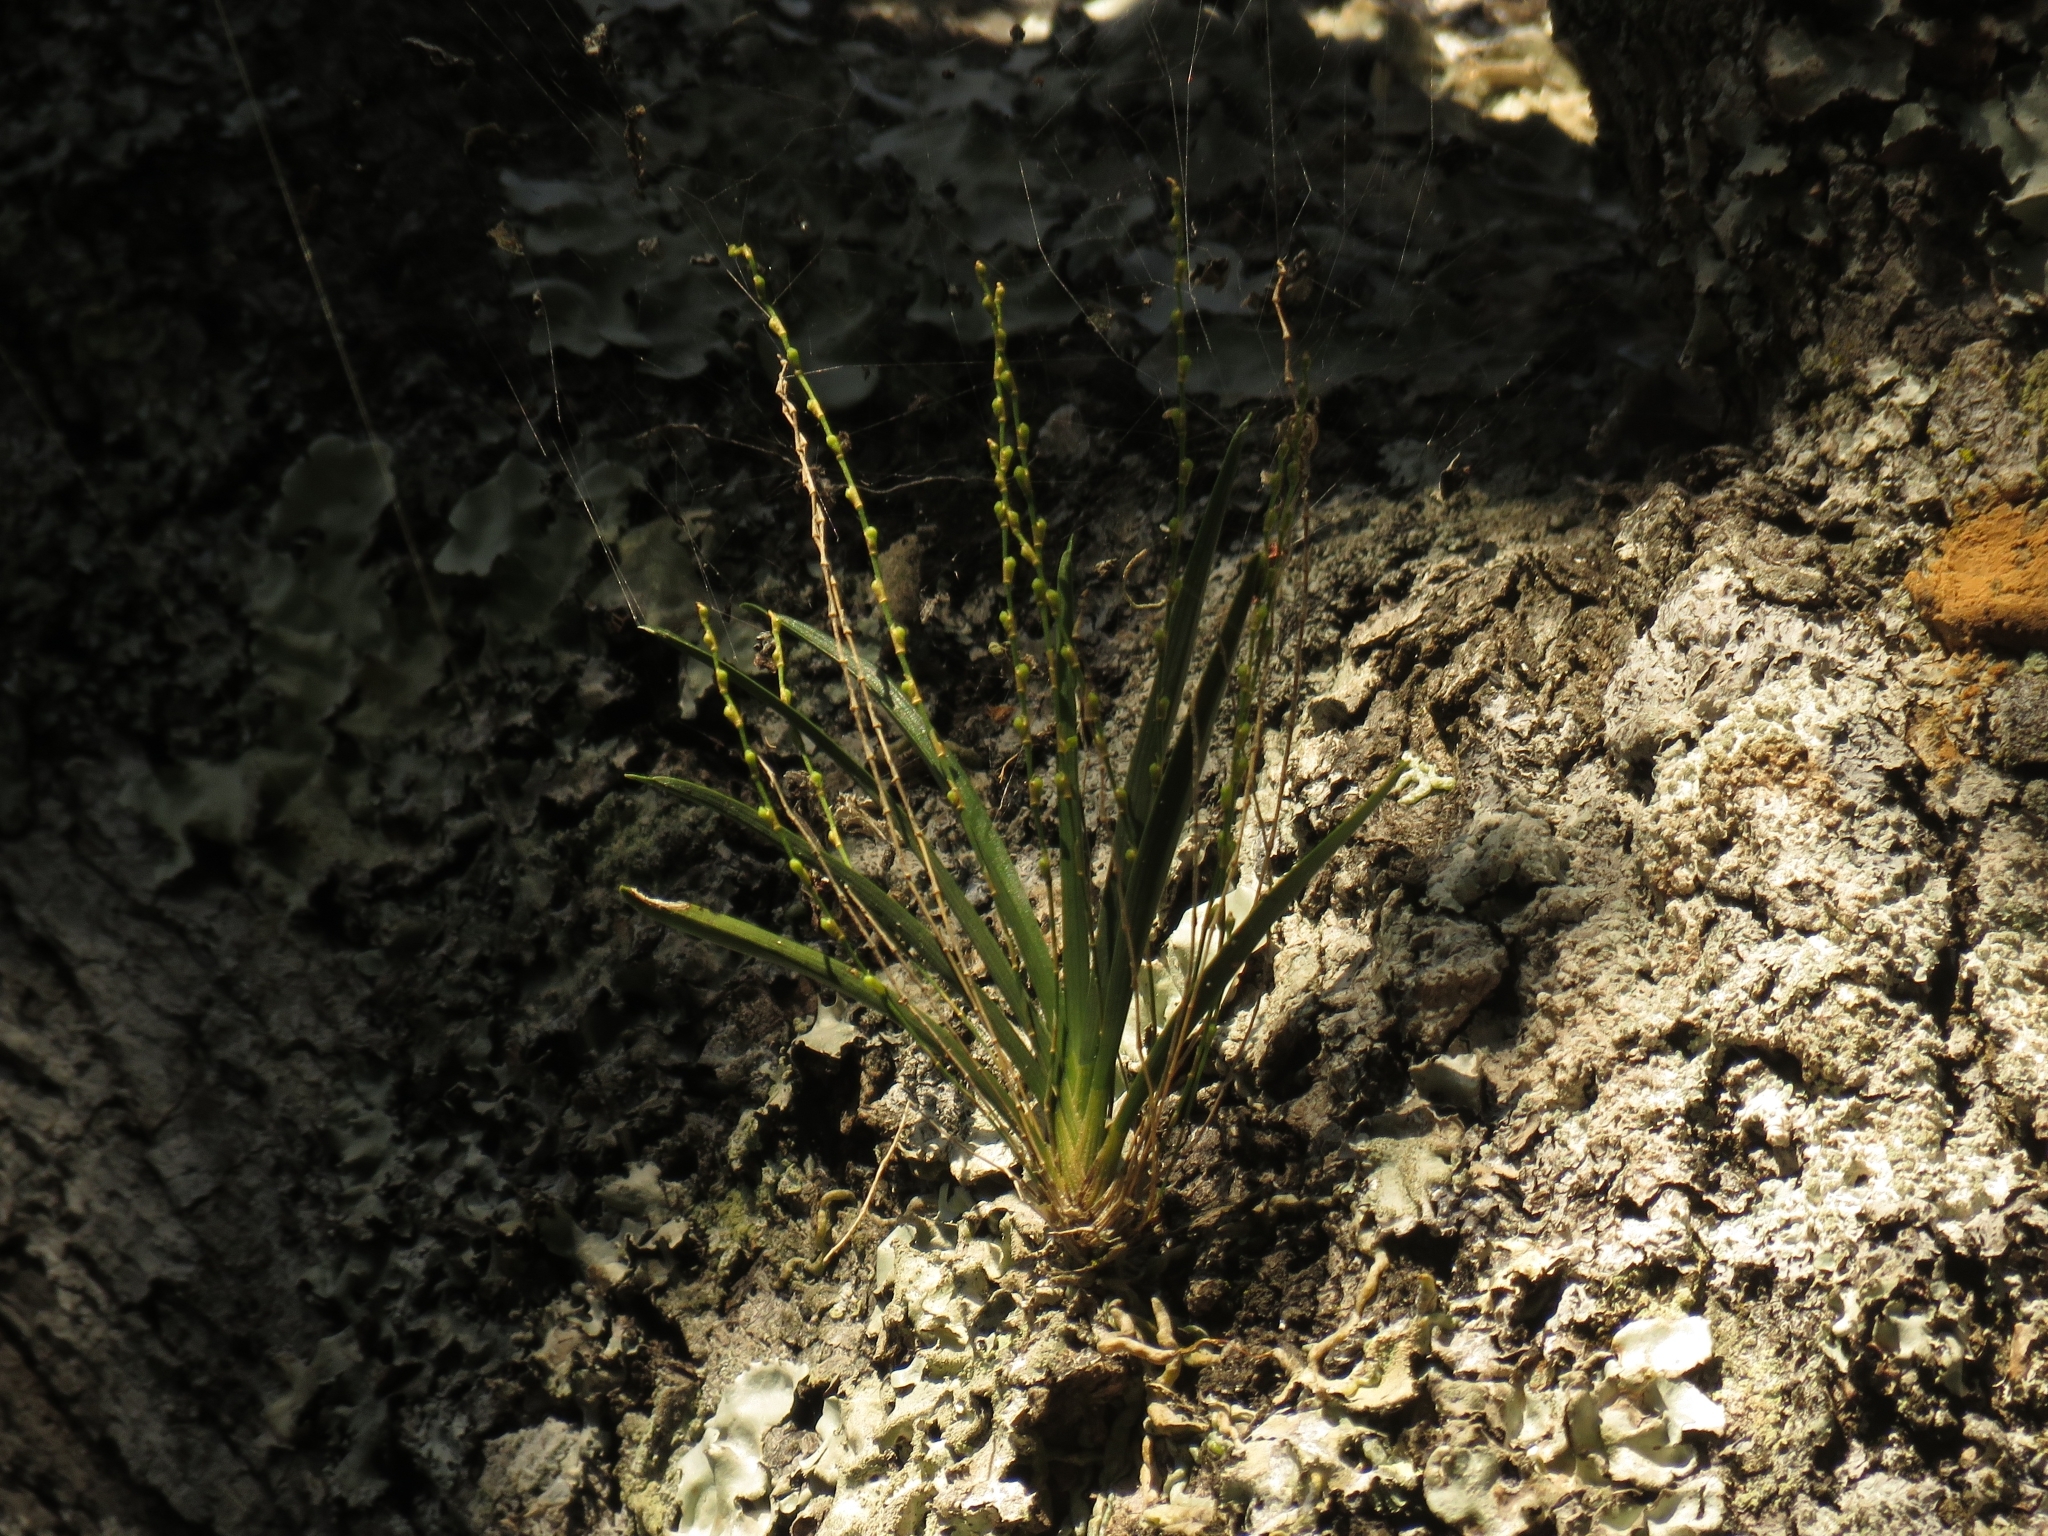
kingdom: Plantae
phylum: Tracheophyta
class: Liliopsida
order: Asparagales
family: Orchidaceae
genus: Angraecum
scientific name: Angraecum pusillum
